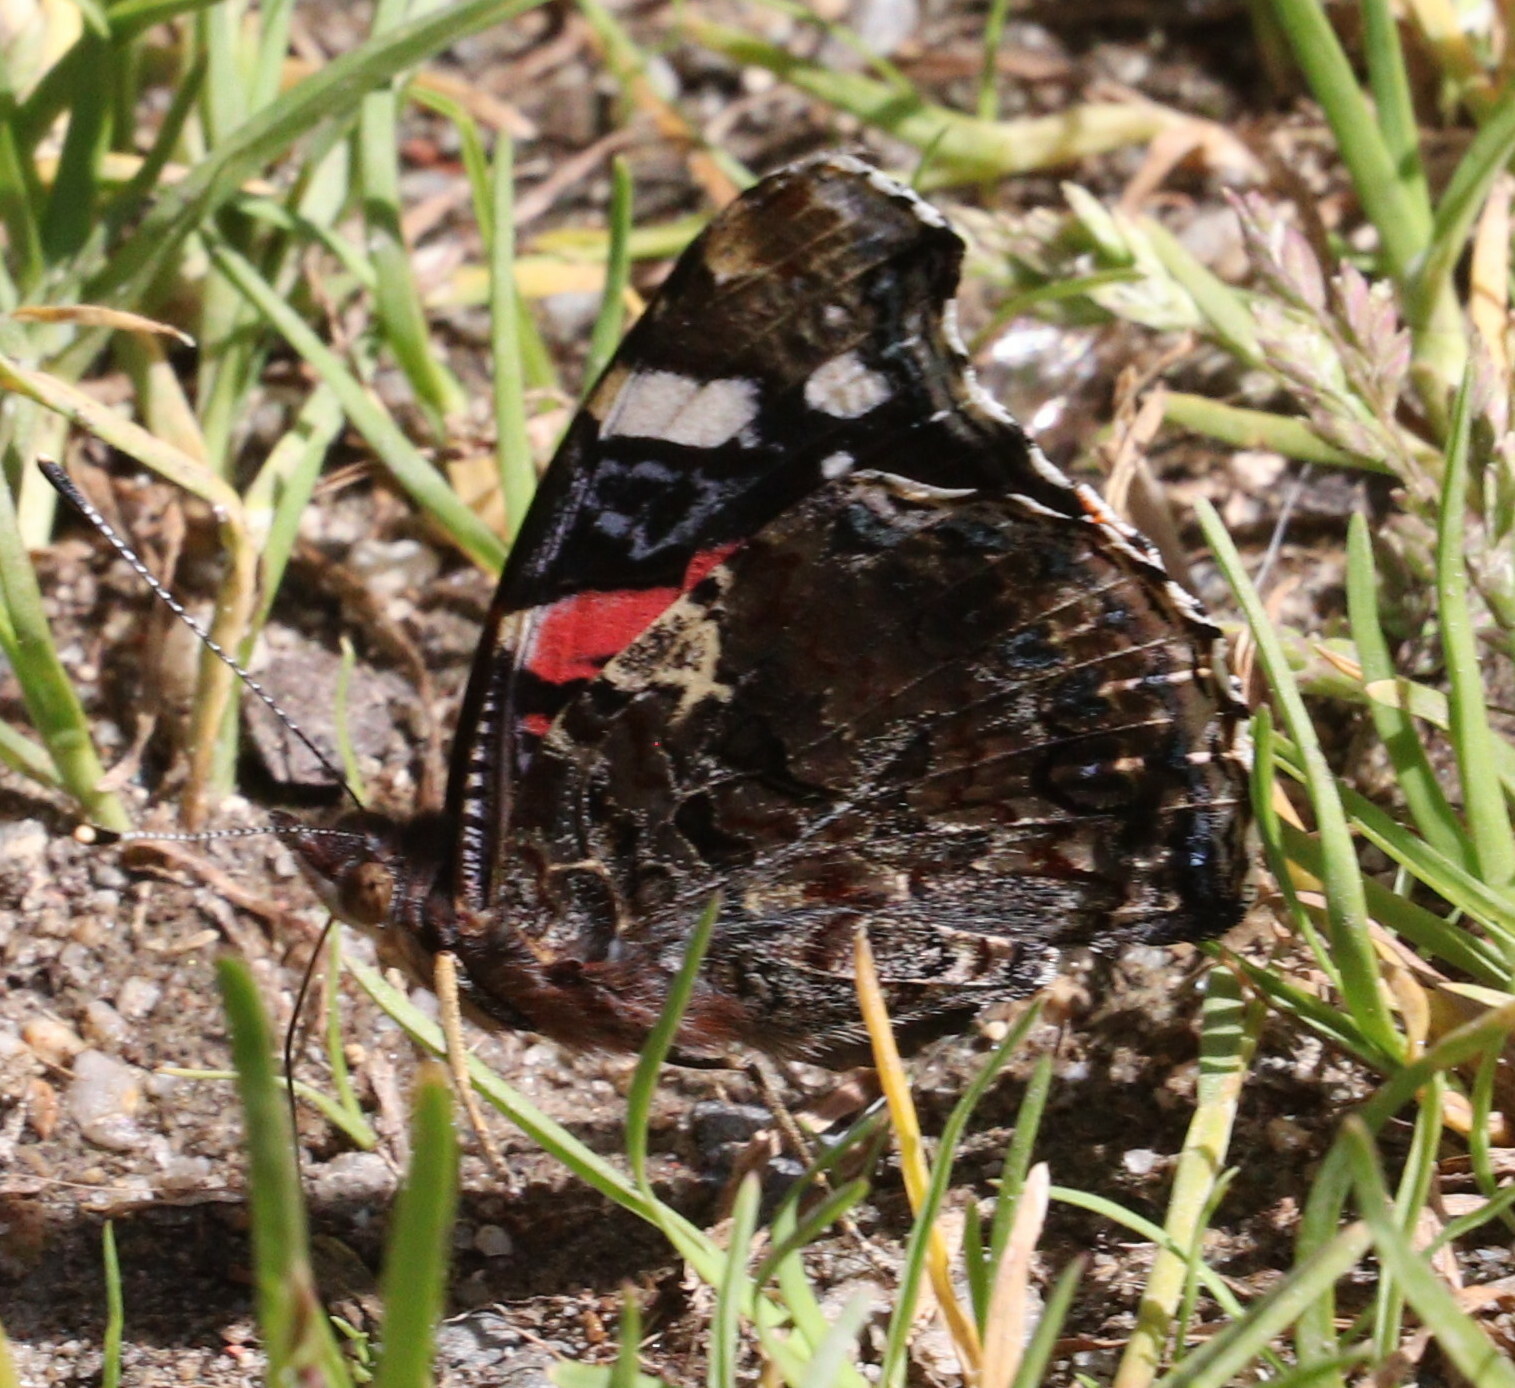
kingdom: Animalia
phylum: Arthropoda
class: Insecta
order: Lepidoptera
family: Nymphalidae
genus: Vanessa
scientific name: Vanessa atalanta
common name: Red admiral
